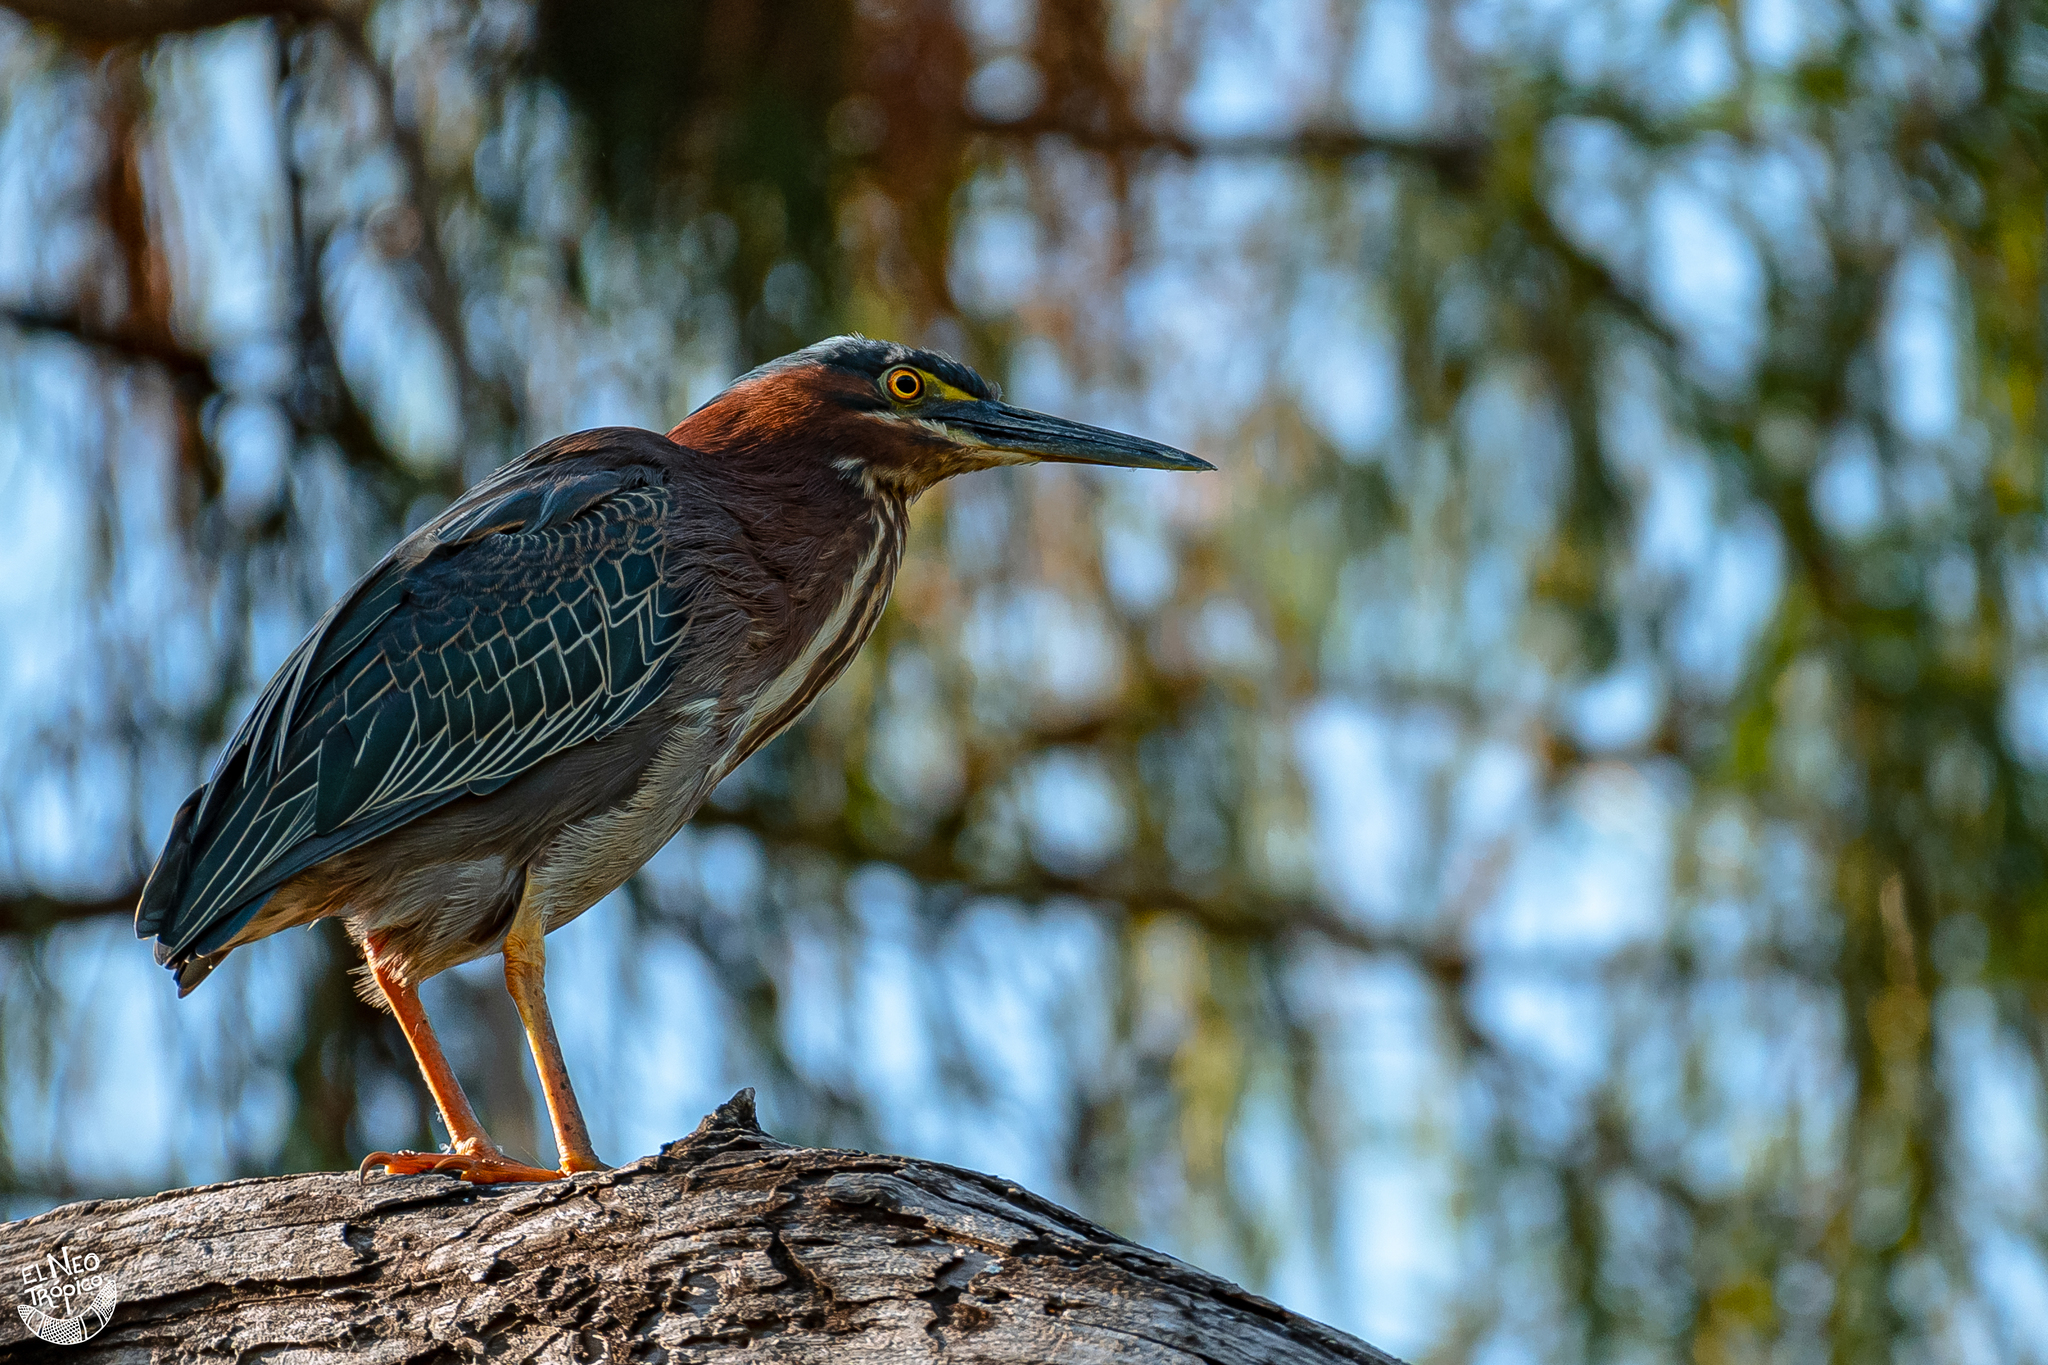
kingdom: Animalia
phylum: Chordata
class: Aves
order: Pelecaniformes
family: Ardeidae
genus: Butorides
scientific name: Butorides virescens
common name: Green heron
